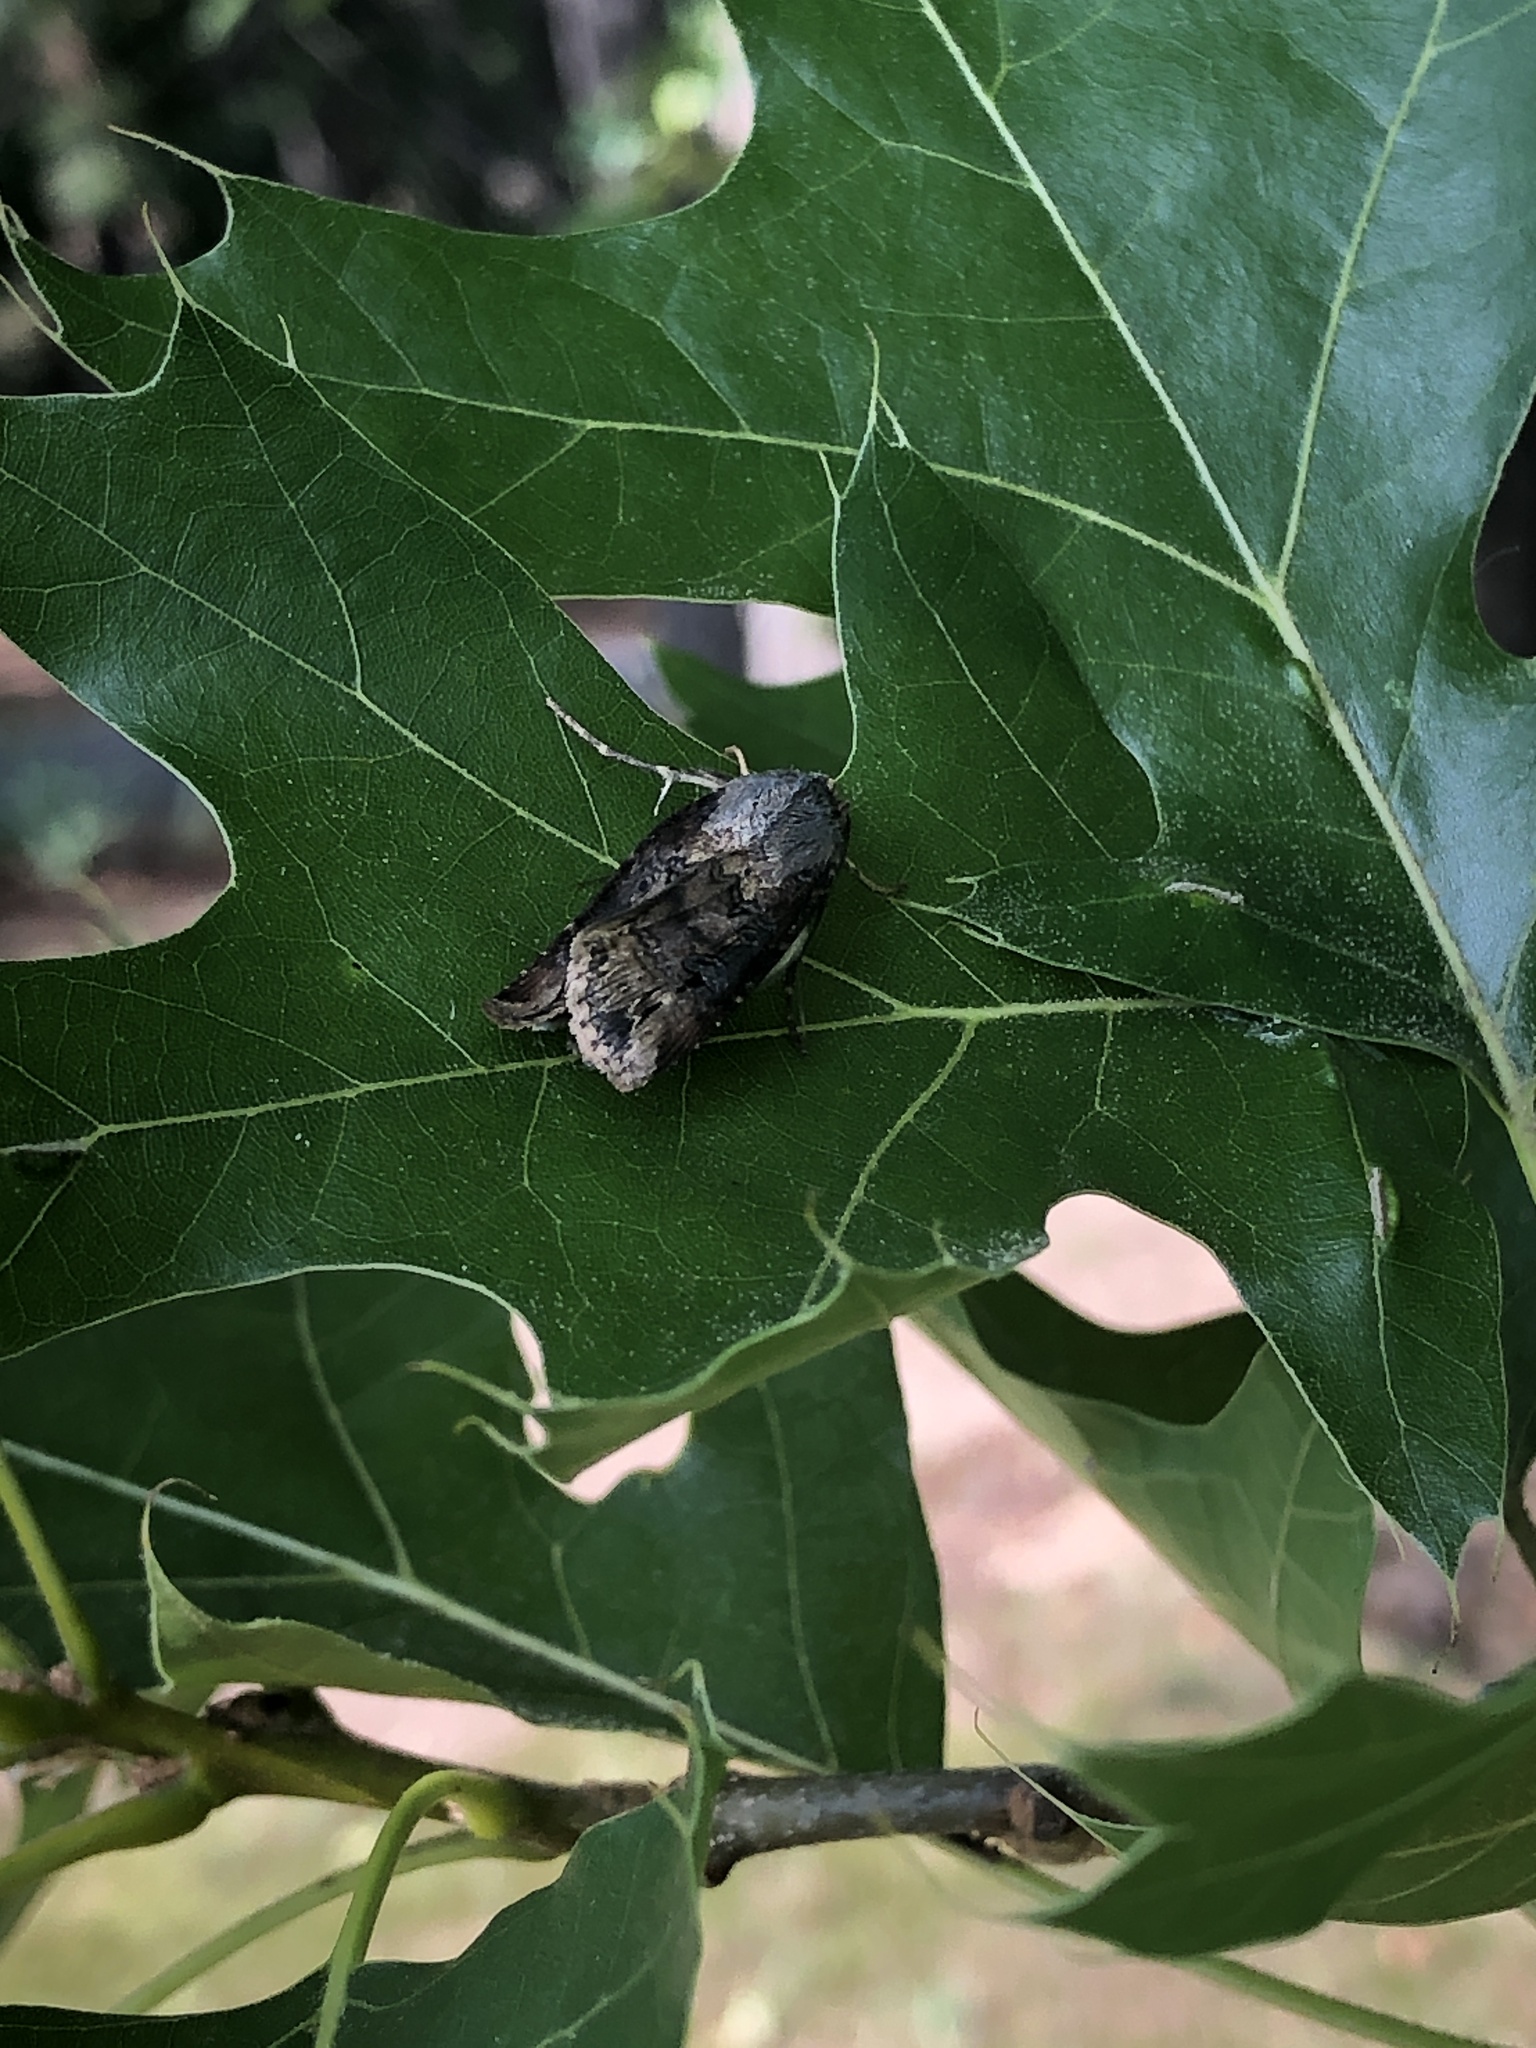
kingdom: Animalia
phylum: Arthropoda
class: Insecta
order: Lepidoptera
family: Noctuidae
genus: Agrotis
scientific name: Agrotis ipsilon
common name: Dark sword-grass
